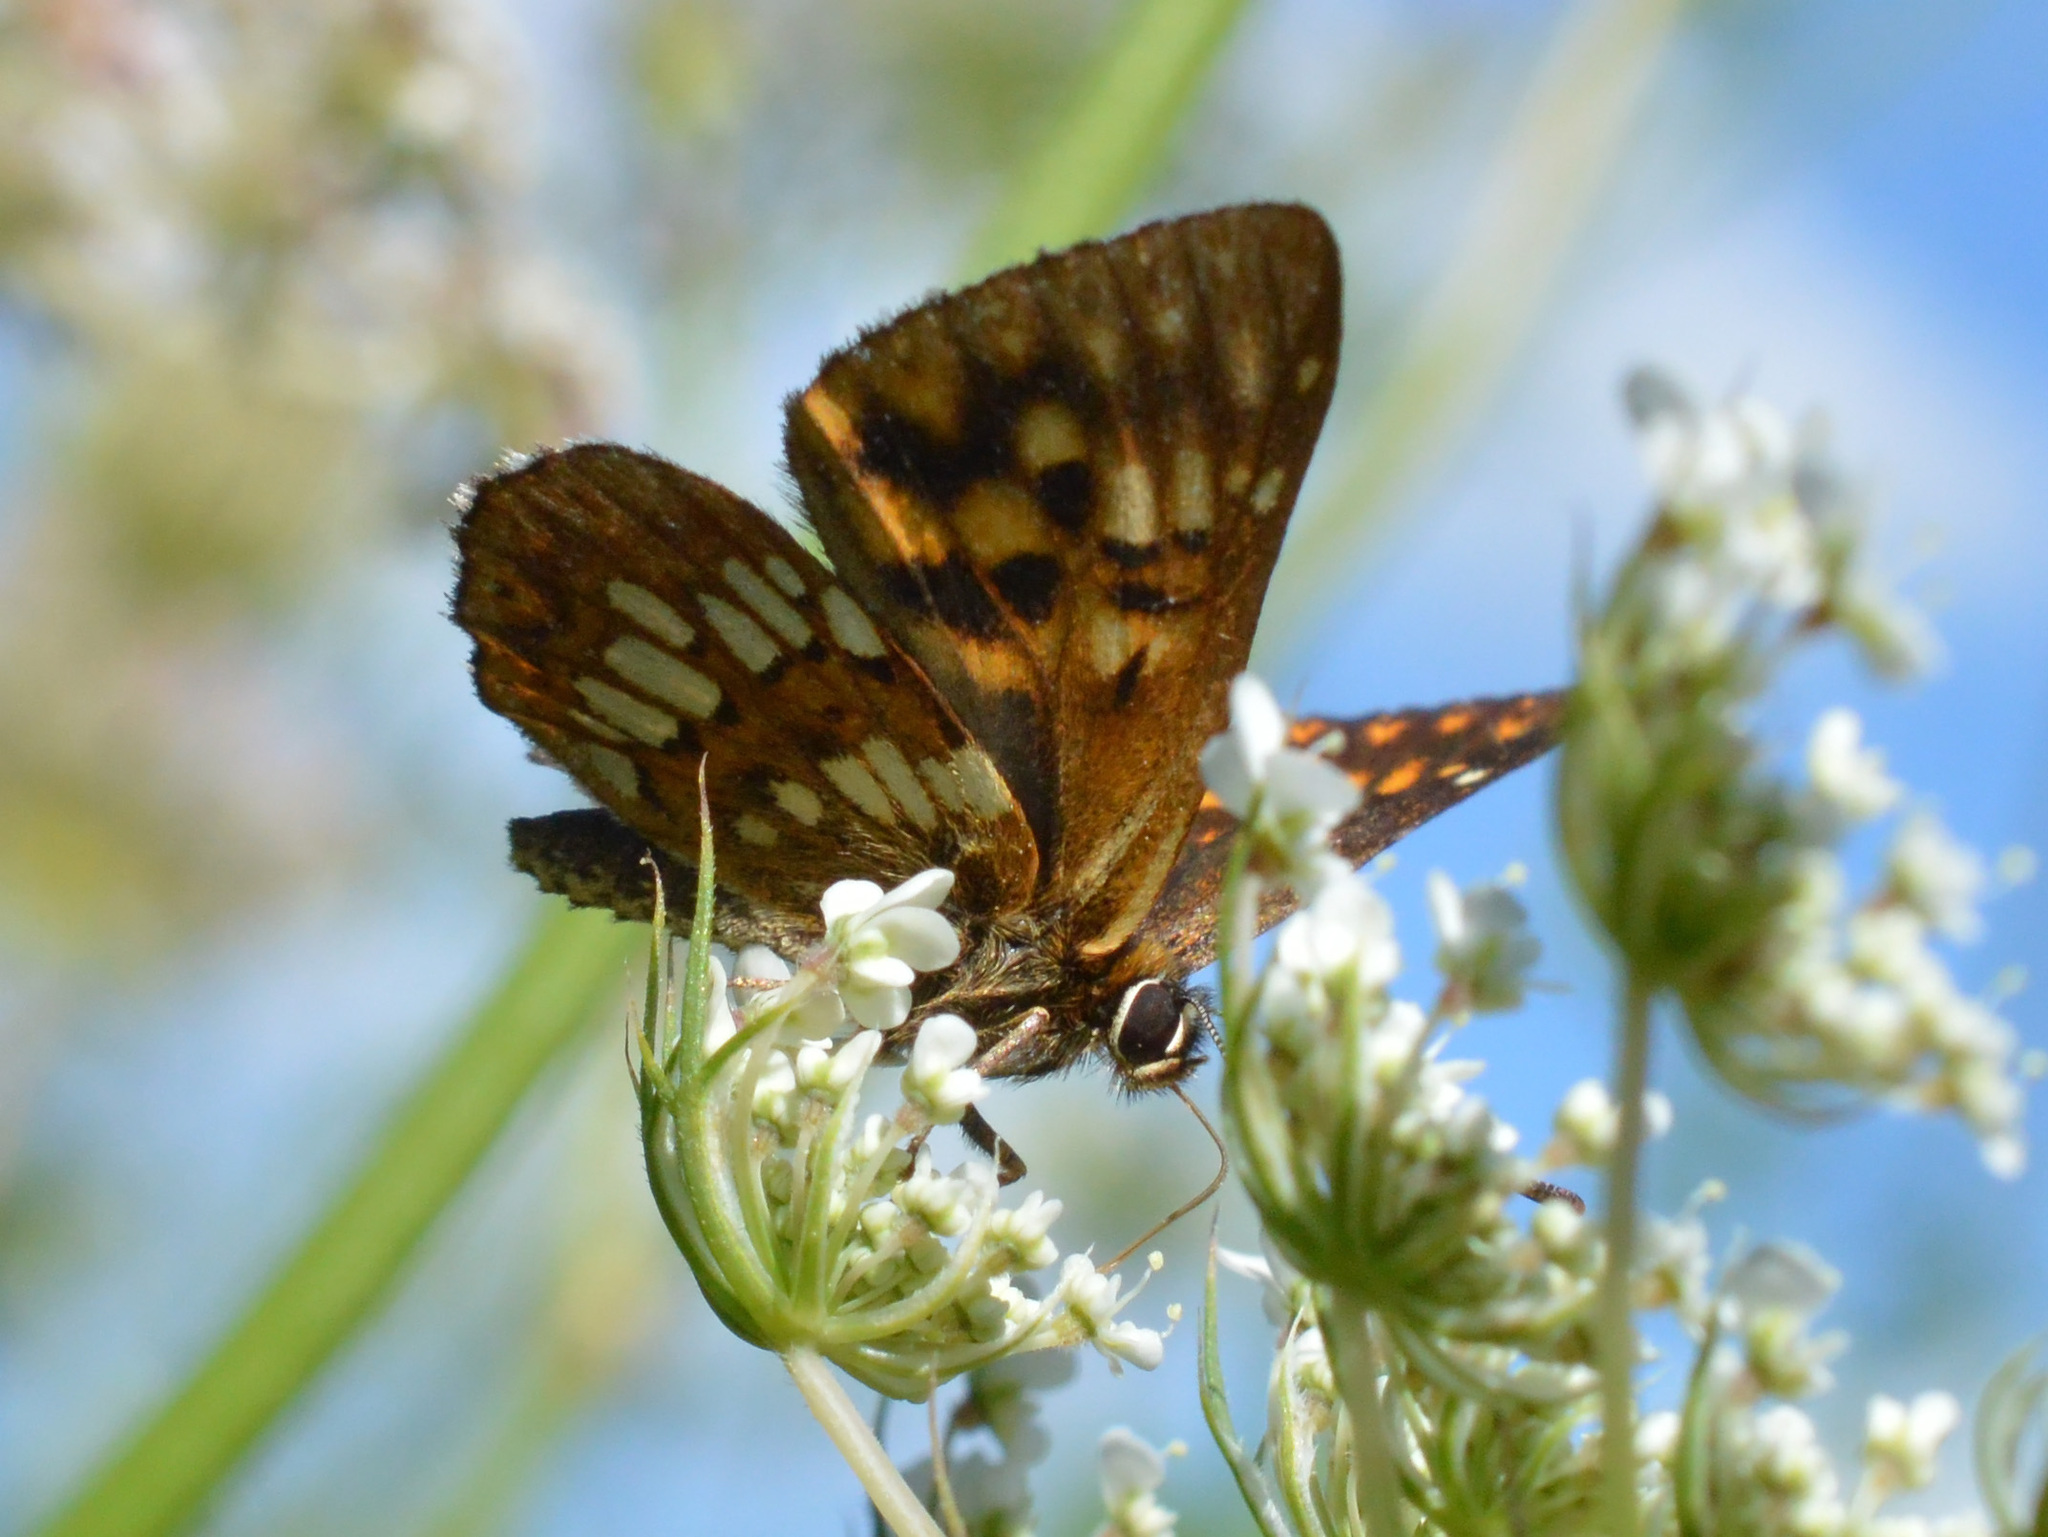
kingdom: Animalia
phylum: Arthropoda
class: Insecta
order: Lepidoptera
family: Riodinidae
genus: Hamearis
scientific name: Hamearis lucina
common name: Duke of burgundy fritillary
